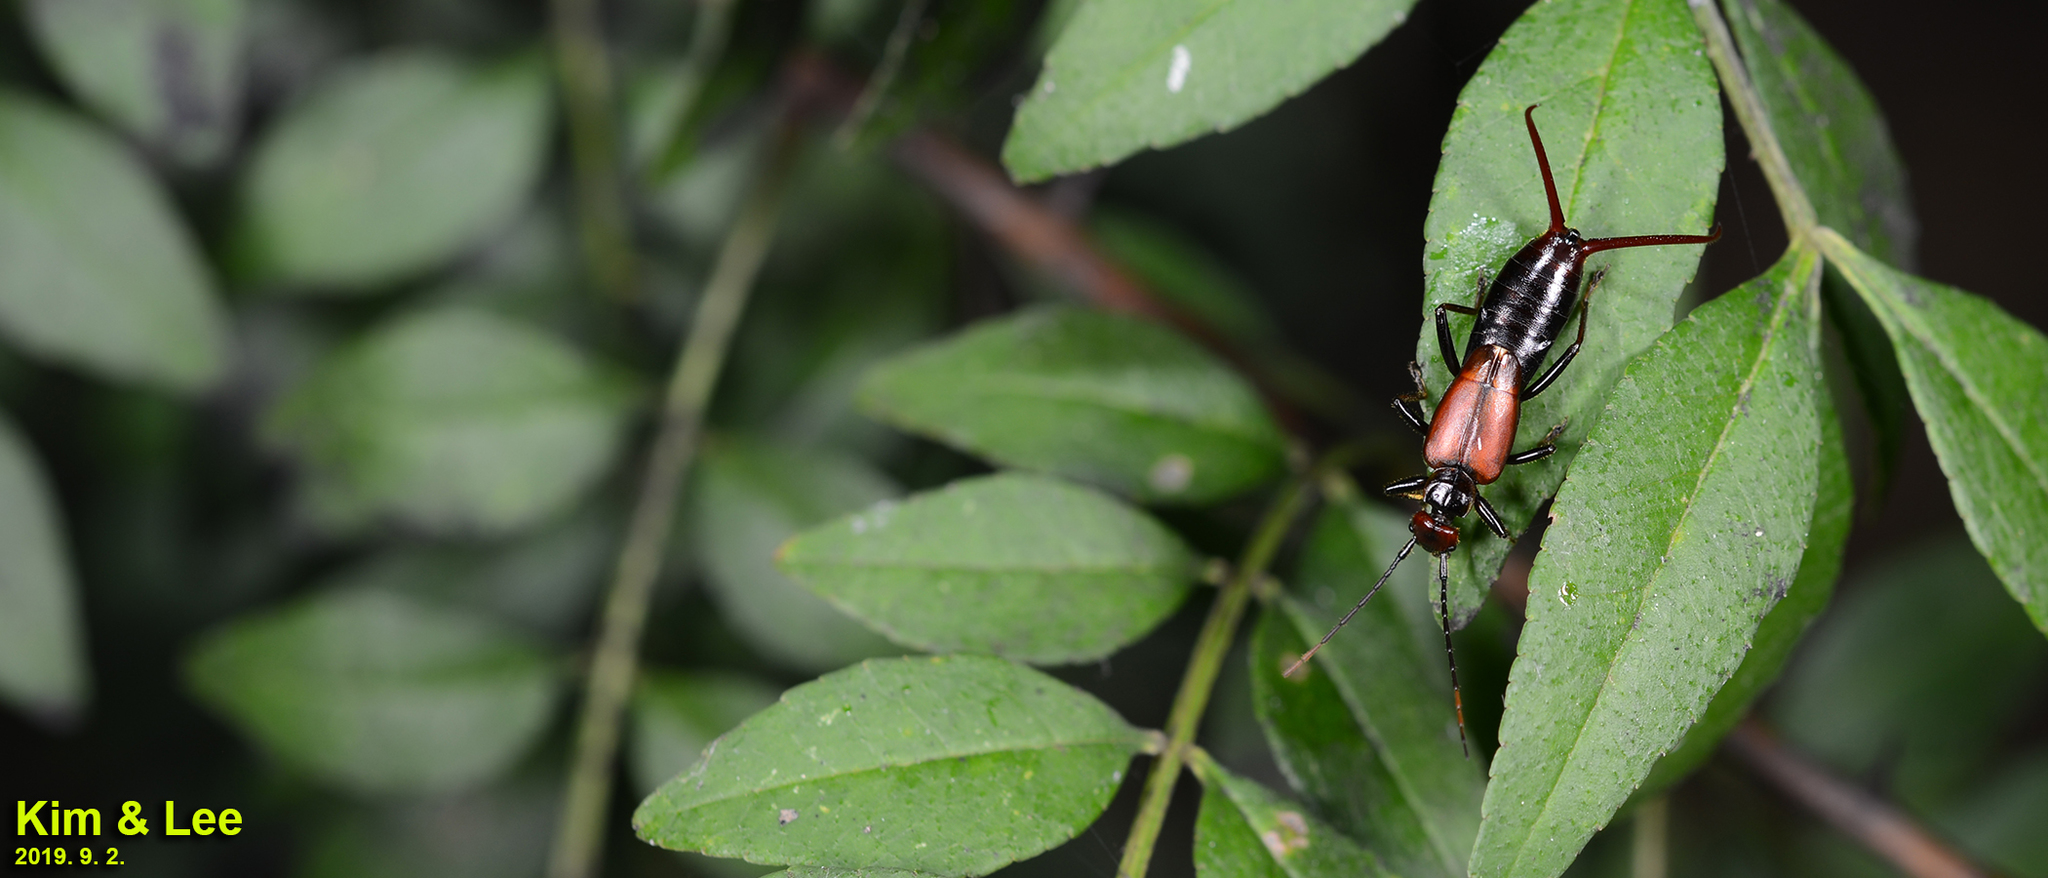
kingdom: Animalia
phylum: Arthropoda
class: Insecta
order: Dermaptera
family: Forficulidae
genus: Timomenus
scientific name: Timomenus komarovi
